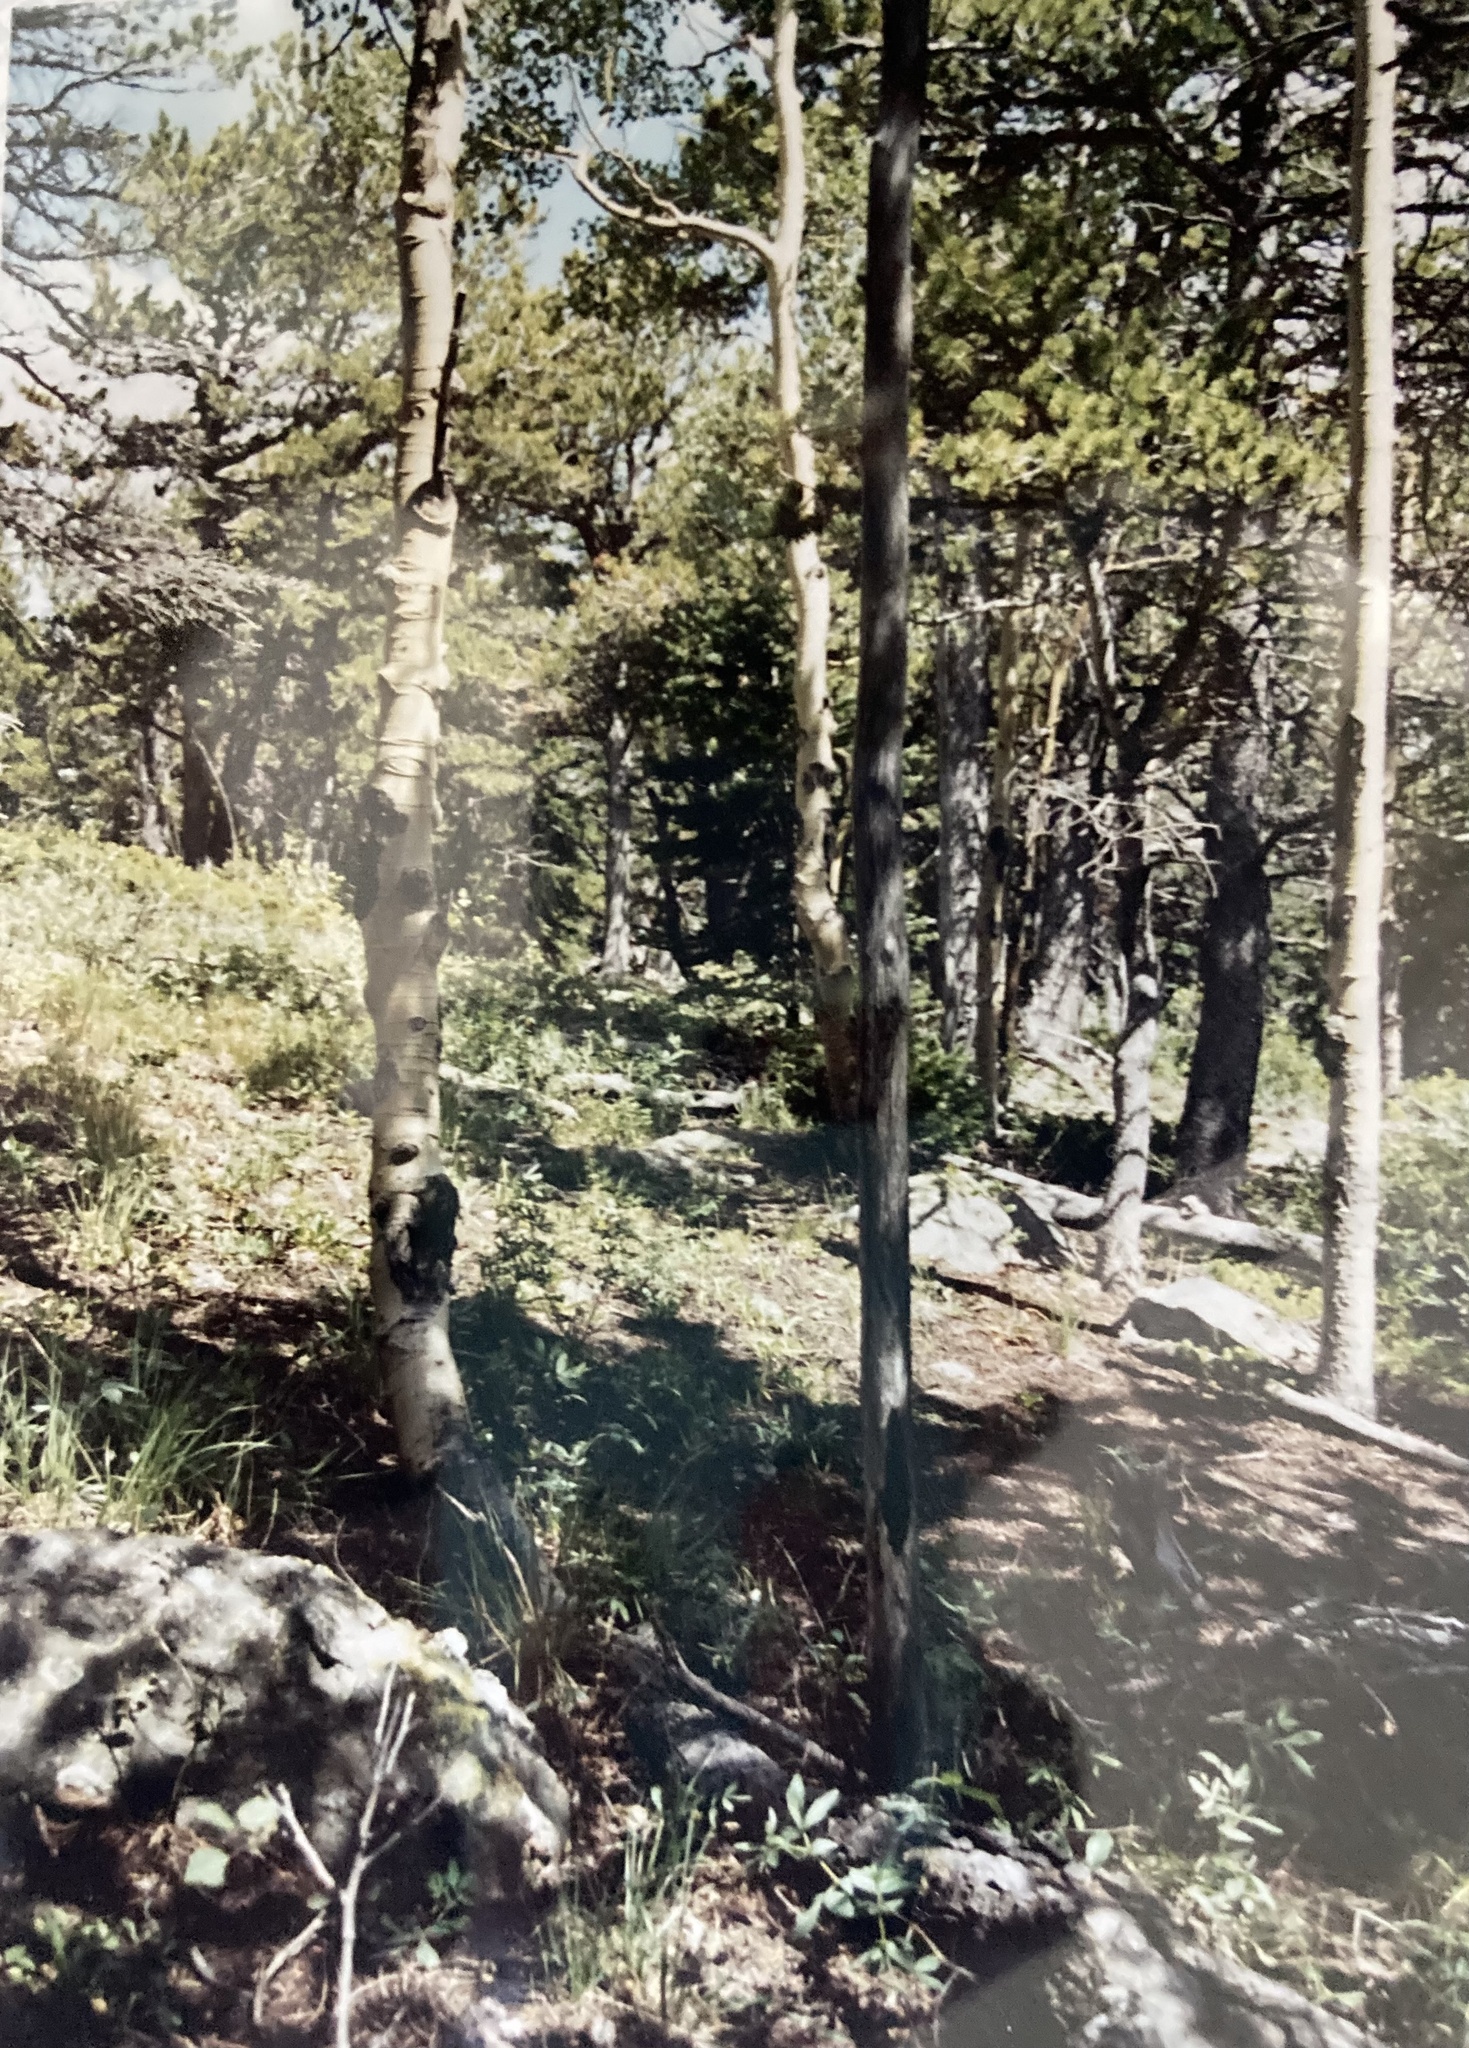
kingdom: Plantae
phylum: Tracheophyta
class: Magnoliopsida
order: Malpighiales
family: Salicaceae
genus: Populus
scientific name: Populus tremuloides
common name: Quaking aspen
